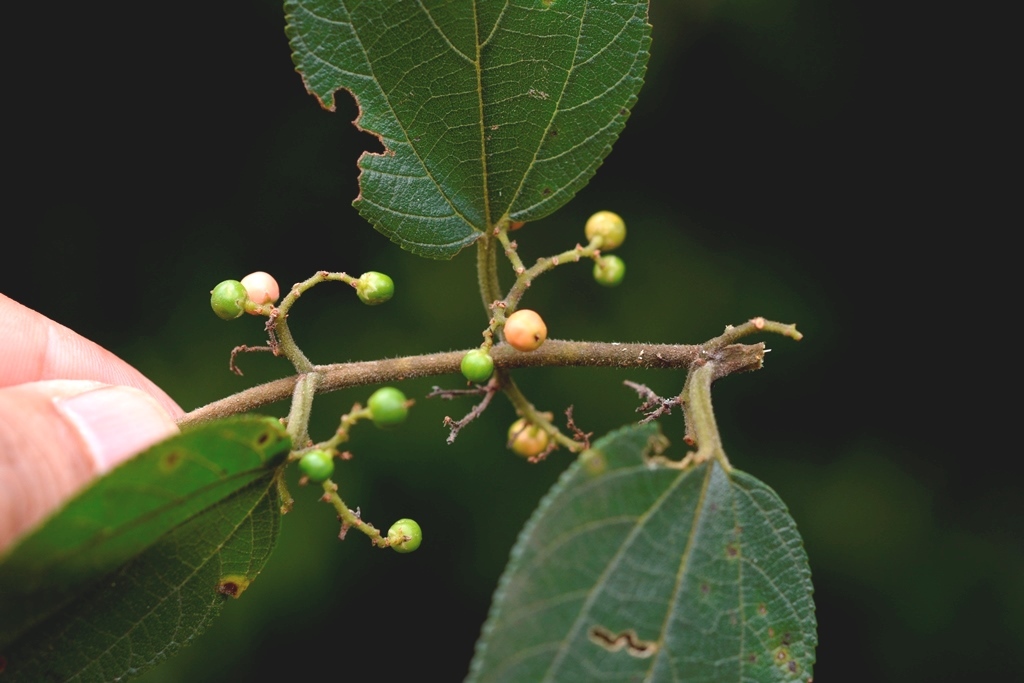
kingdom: Plantae
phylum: Tracheophyta
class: Magnoliopsida
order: Rosales
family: Cannabaceae
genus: Trema
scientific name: Trema micranthum
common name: Jamaican nettletree
